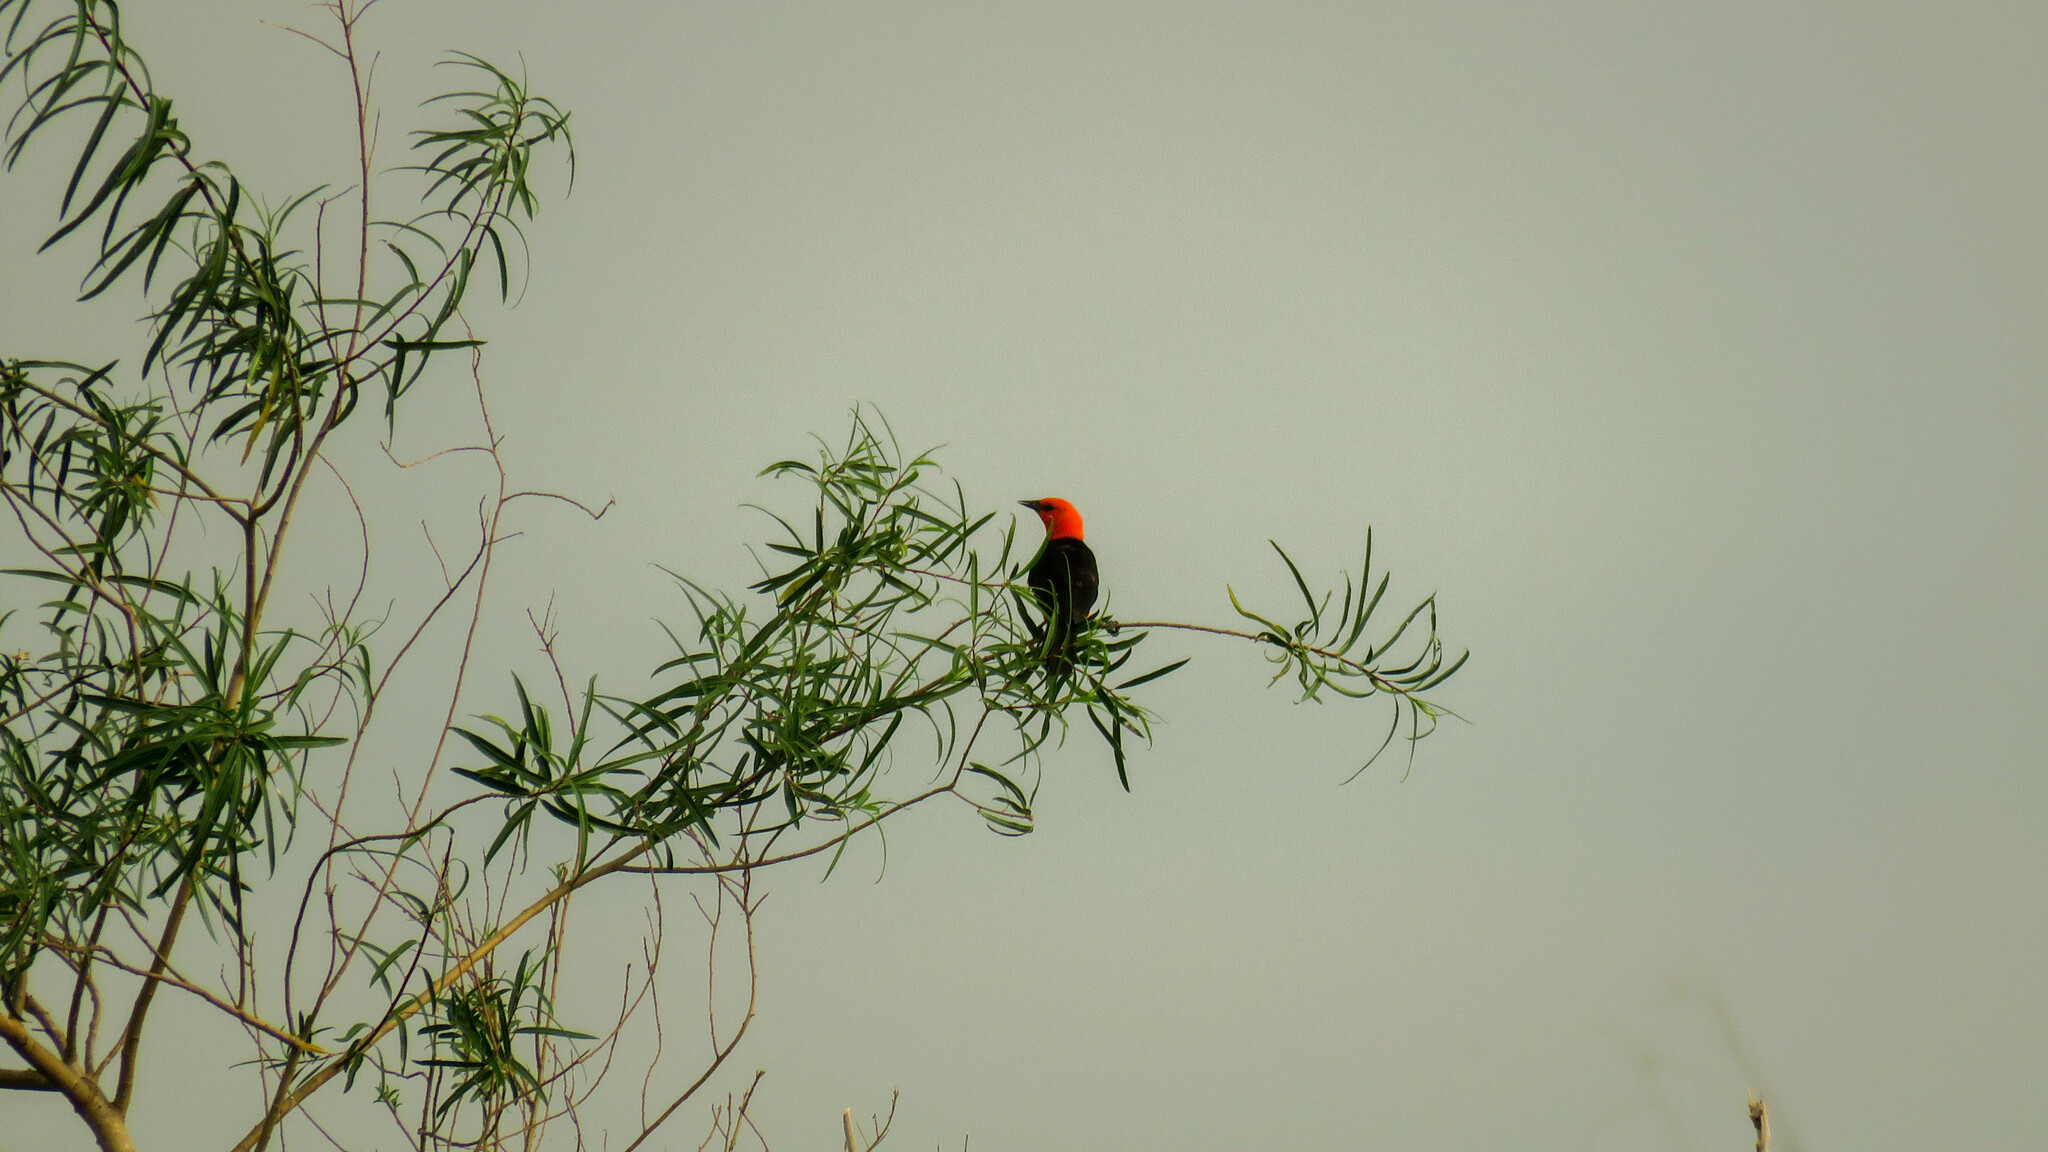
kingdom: Animalia
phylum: Chordata
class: Aves
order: Passeriformes
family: Icteridae
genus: Amblyramphus
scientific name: Amblyramphus holosericeus
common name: Scarlet-headed blackbird
